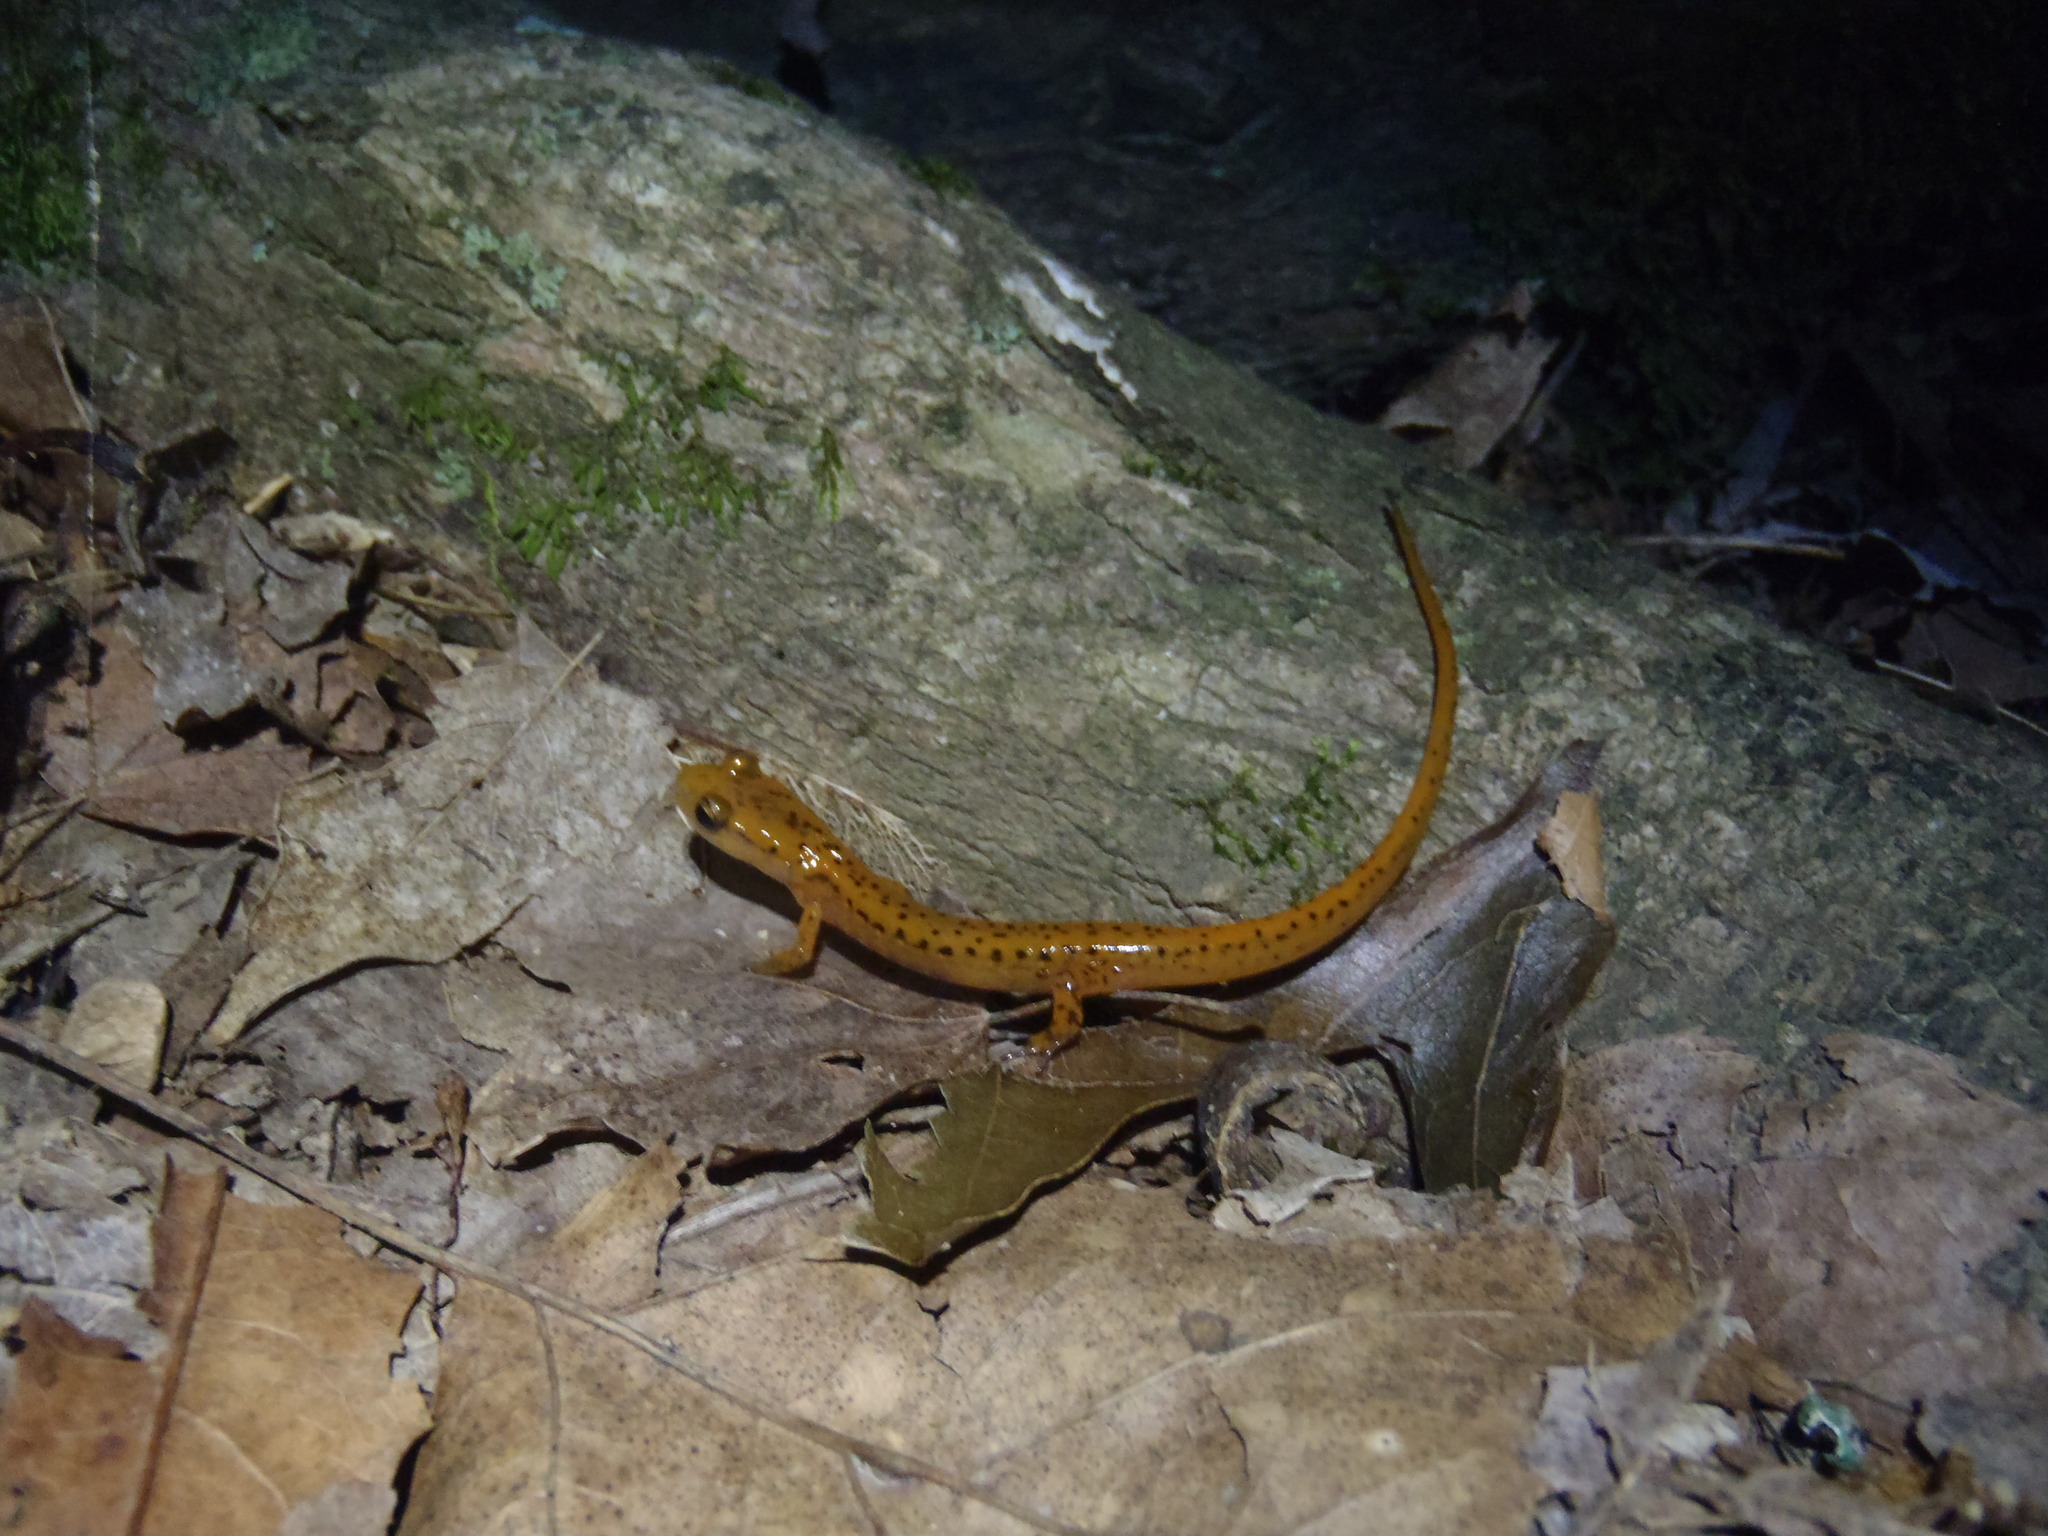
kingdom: Animalia
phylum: Chordata
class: Amphibia
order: Caudata
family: Plethodontidae
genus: Eurycea
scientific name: Eurycea lucifuga
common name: Cave salamander
